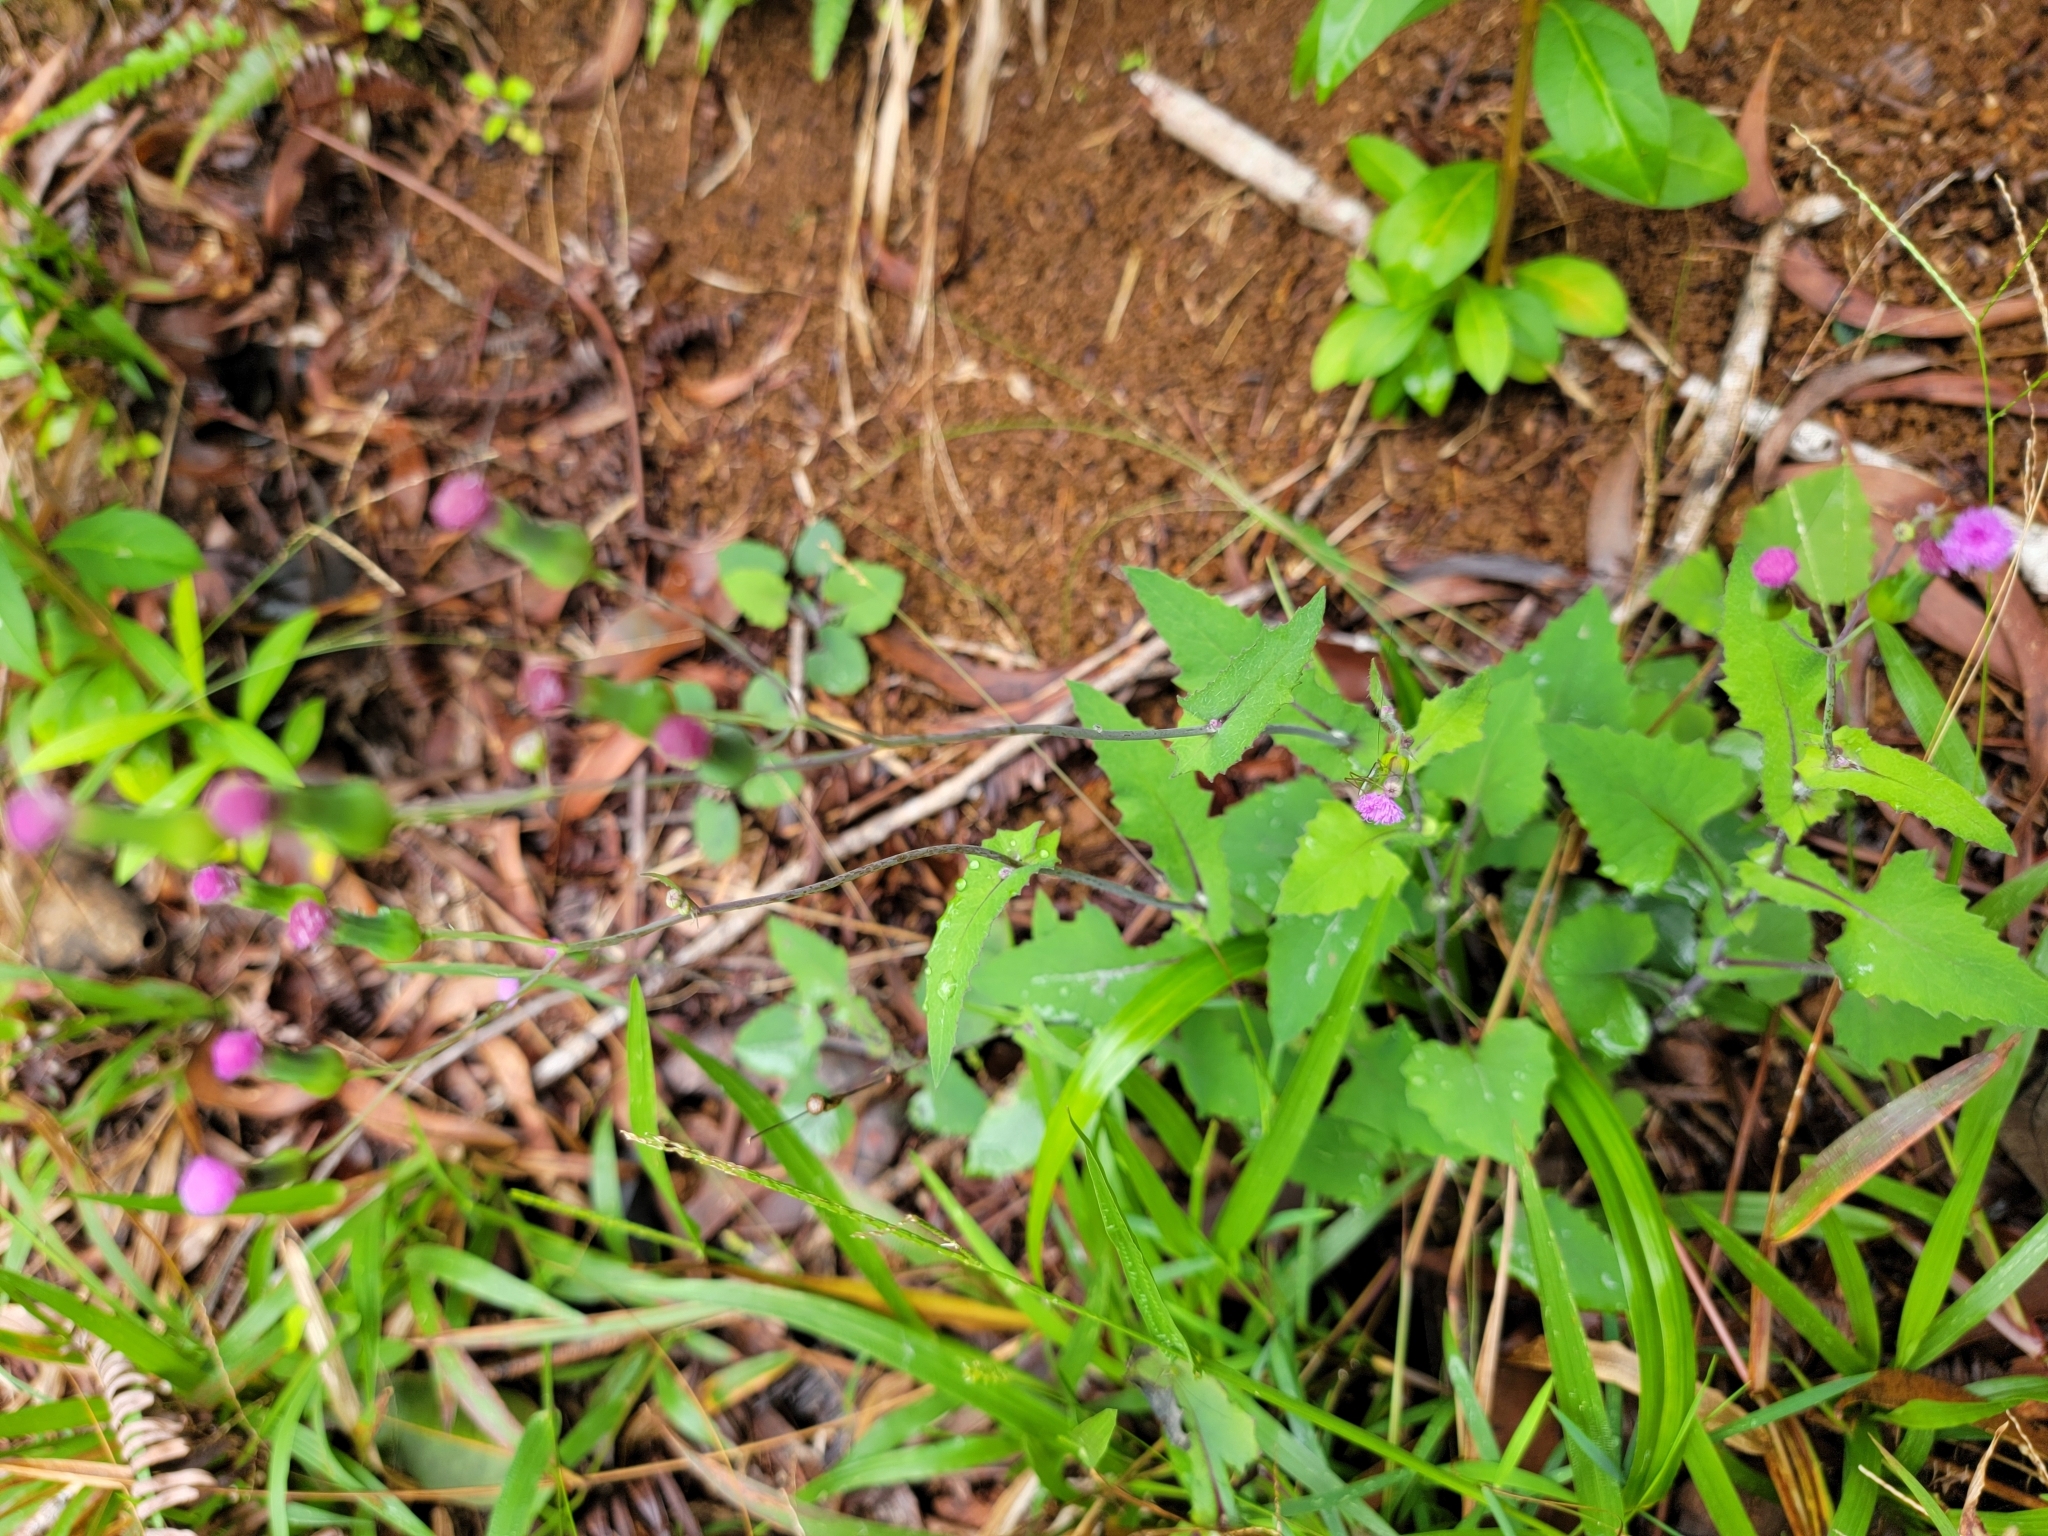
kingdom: Plantae
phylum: Tracheophyta
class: Magnoliopsida
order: Asterales
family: Asteraceae
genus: Emilia
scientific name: Emilia sonchifolia
